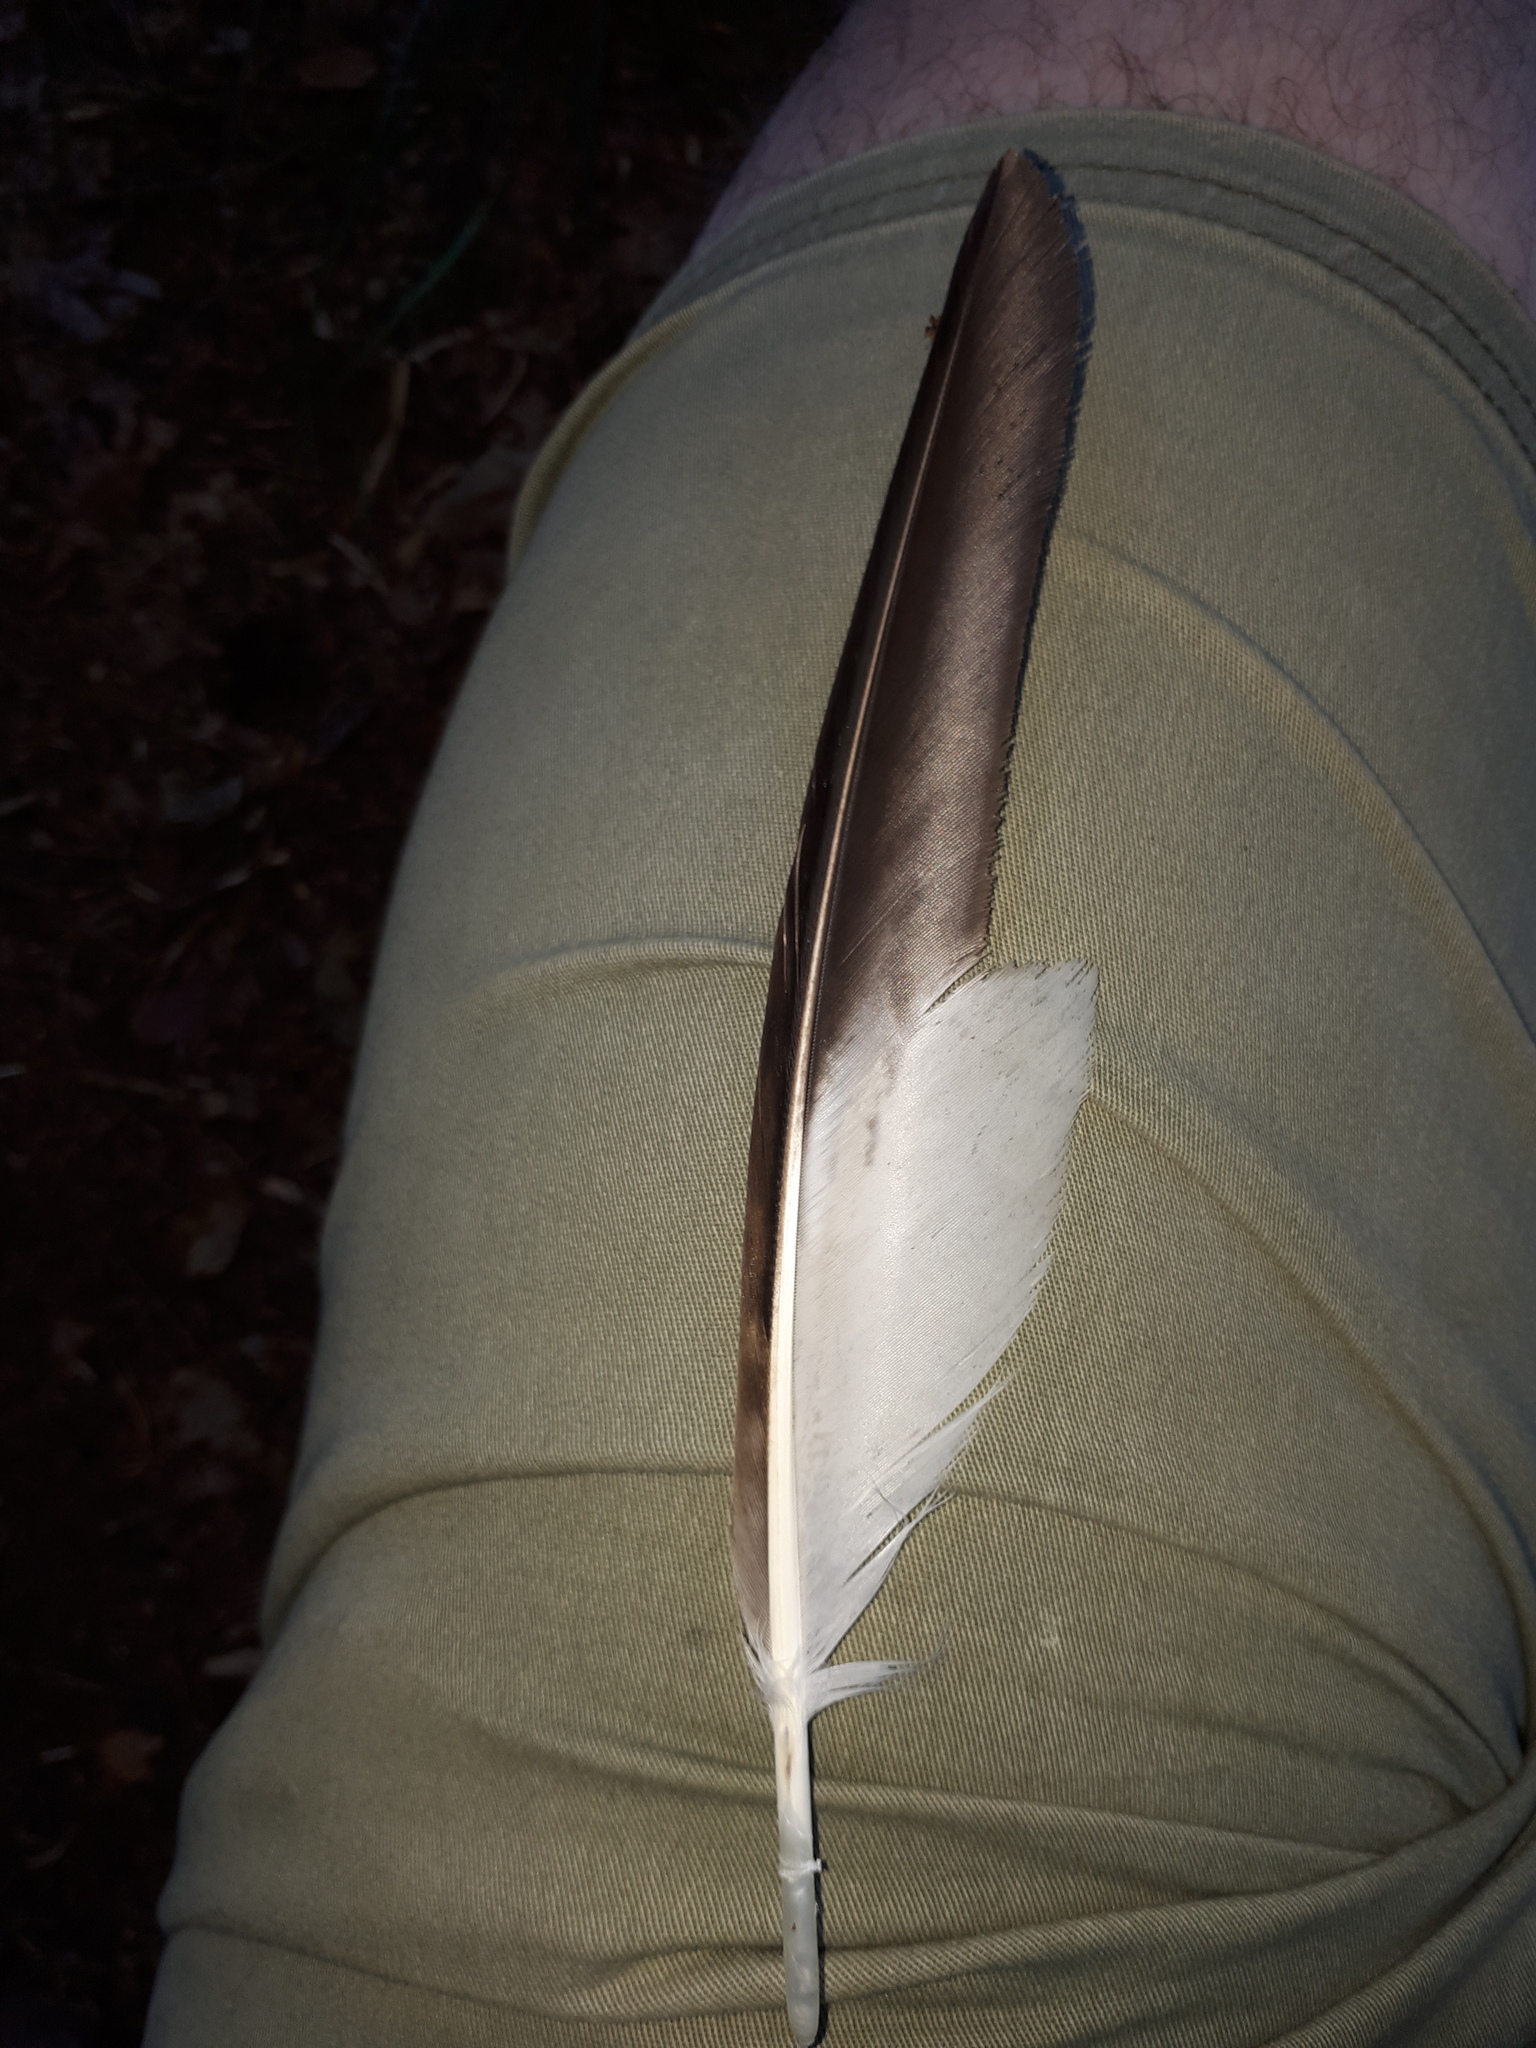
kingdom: Animalia
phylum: Chordata
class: Aves
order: Accipitriformes
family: Accipitridae
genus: Buteo
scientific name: Buteo buteo
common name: Common buzzard
